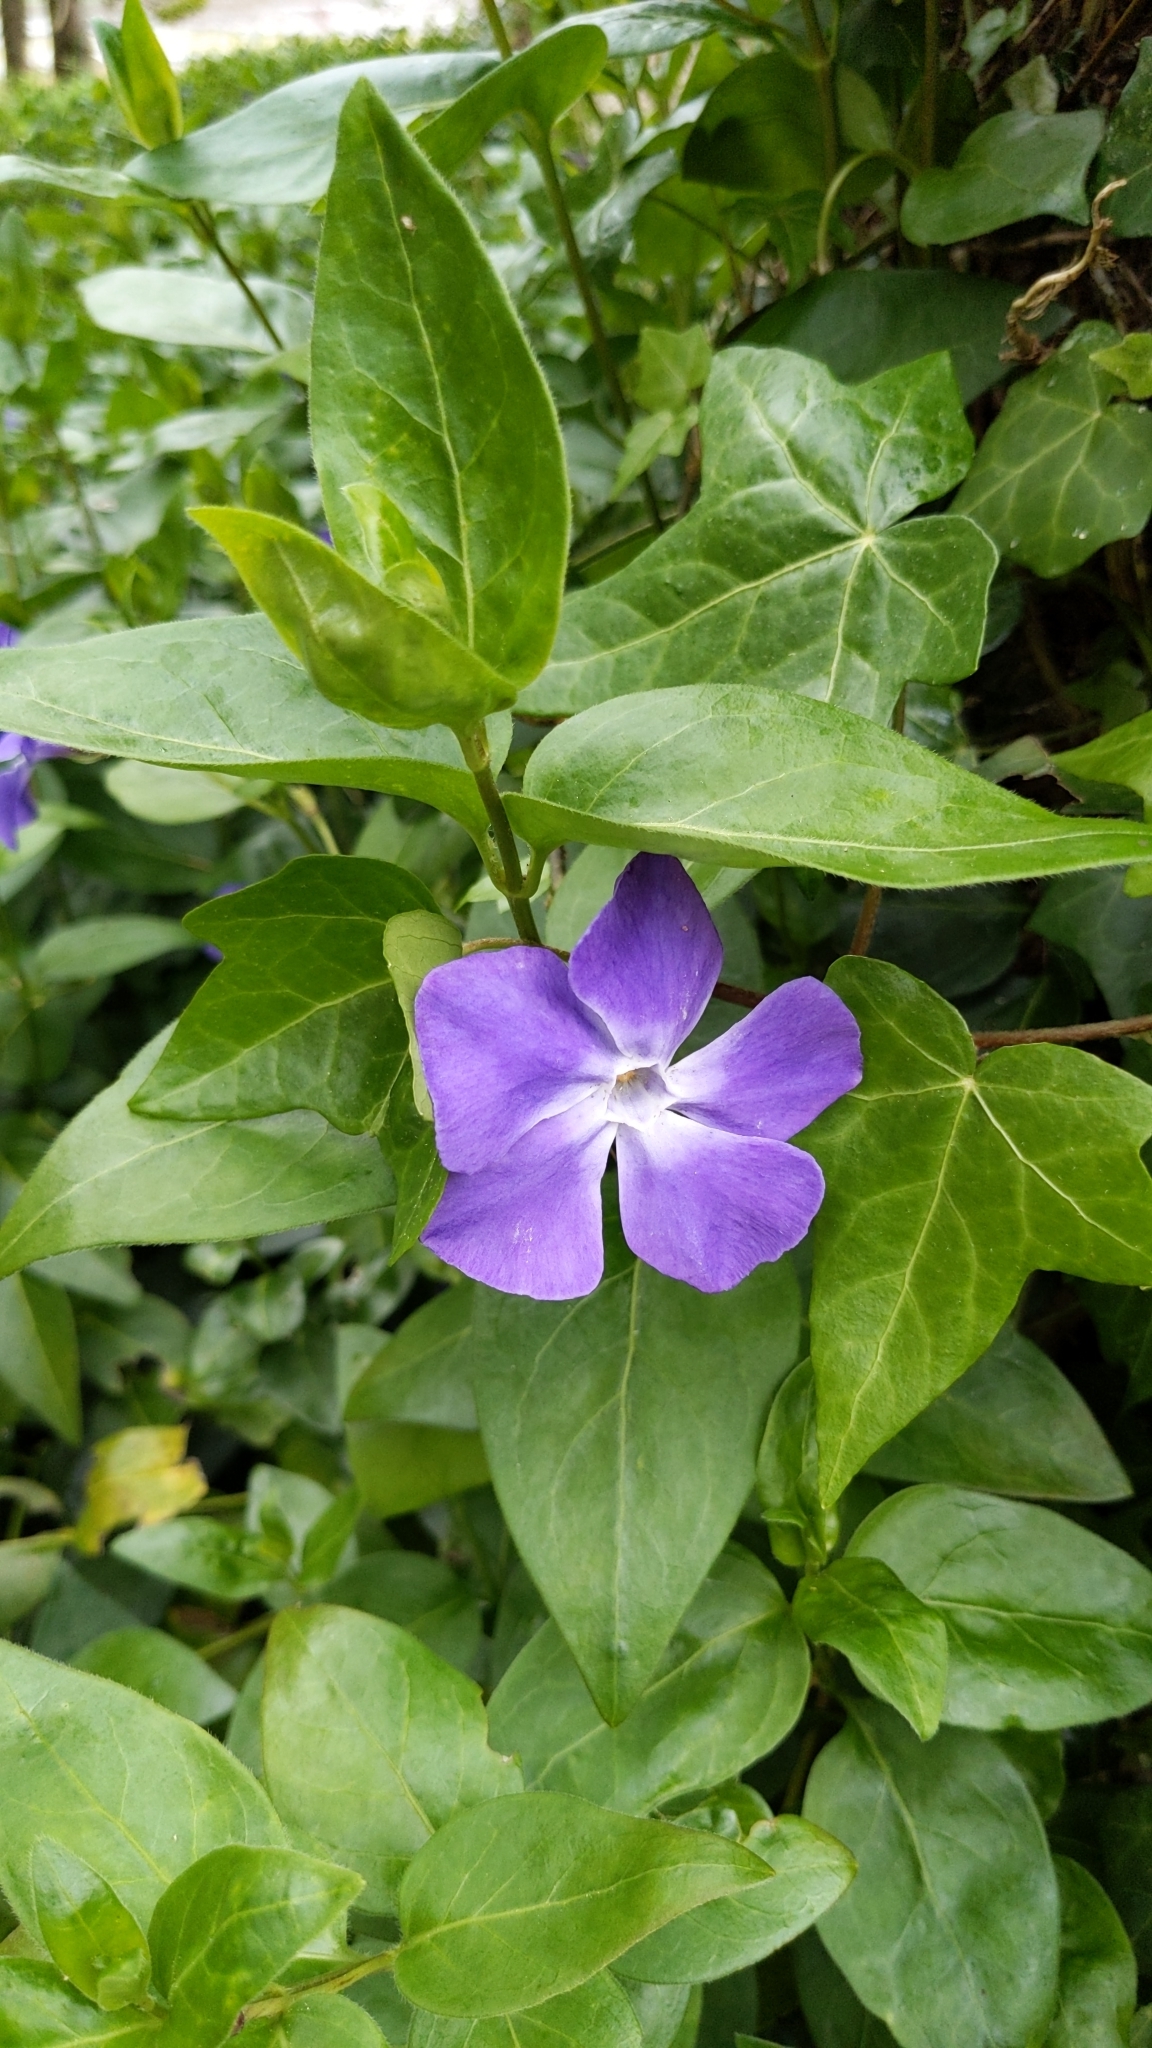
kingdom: Plantae
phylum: Tracheophyta
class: Magnoliopsida
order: Gentianales
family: Apocynaceae
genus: Vinca
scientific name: Vinca major
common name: Greater periwinkle
